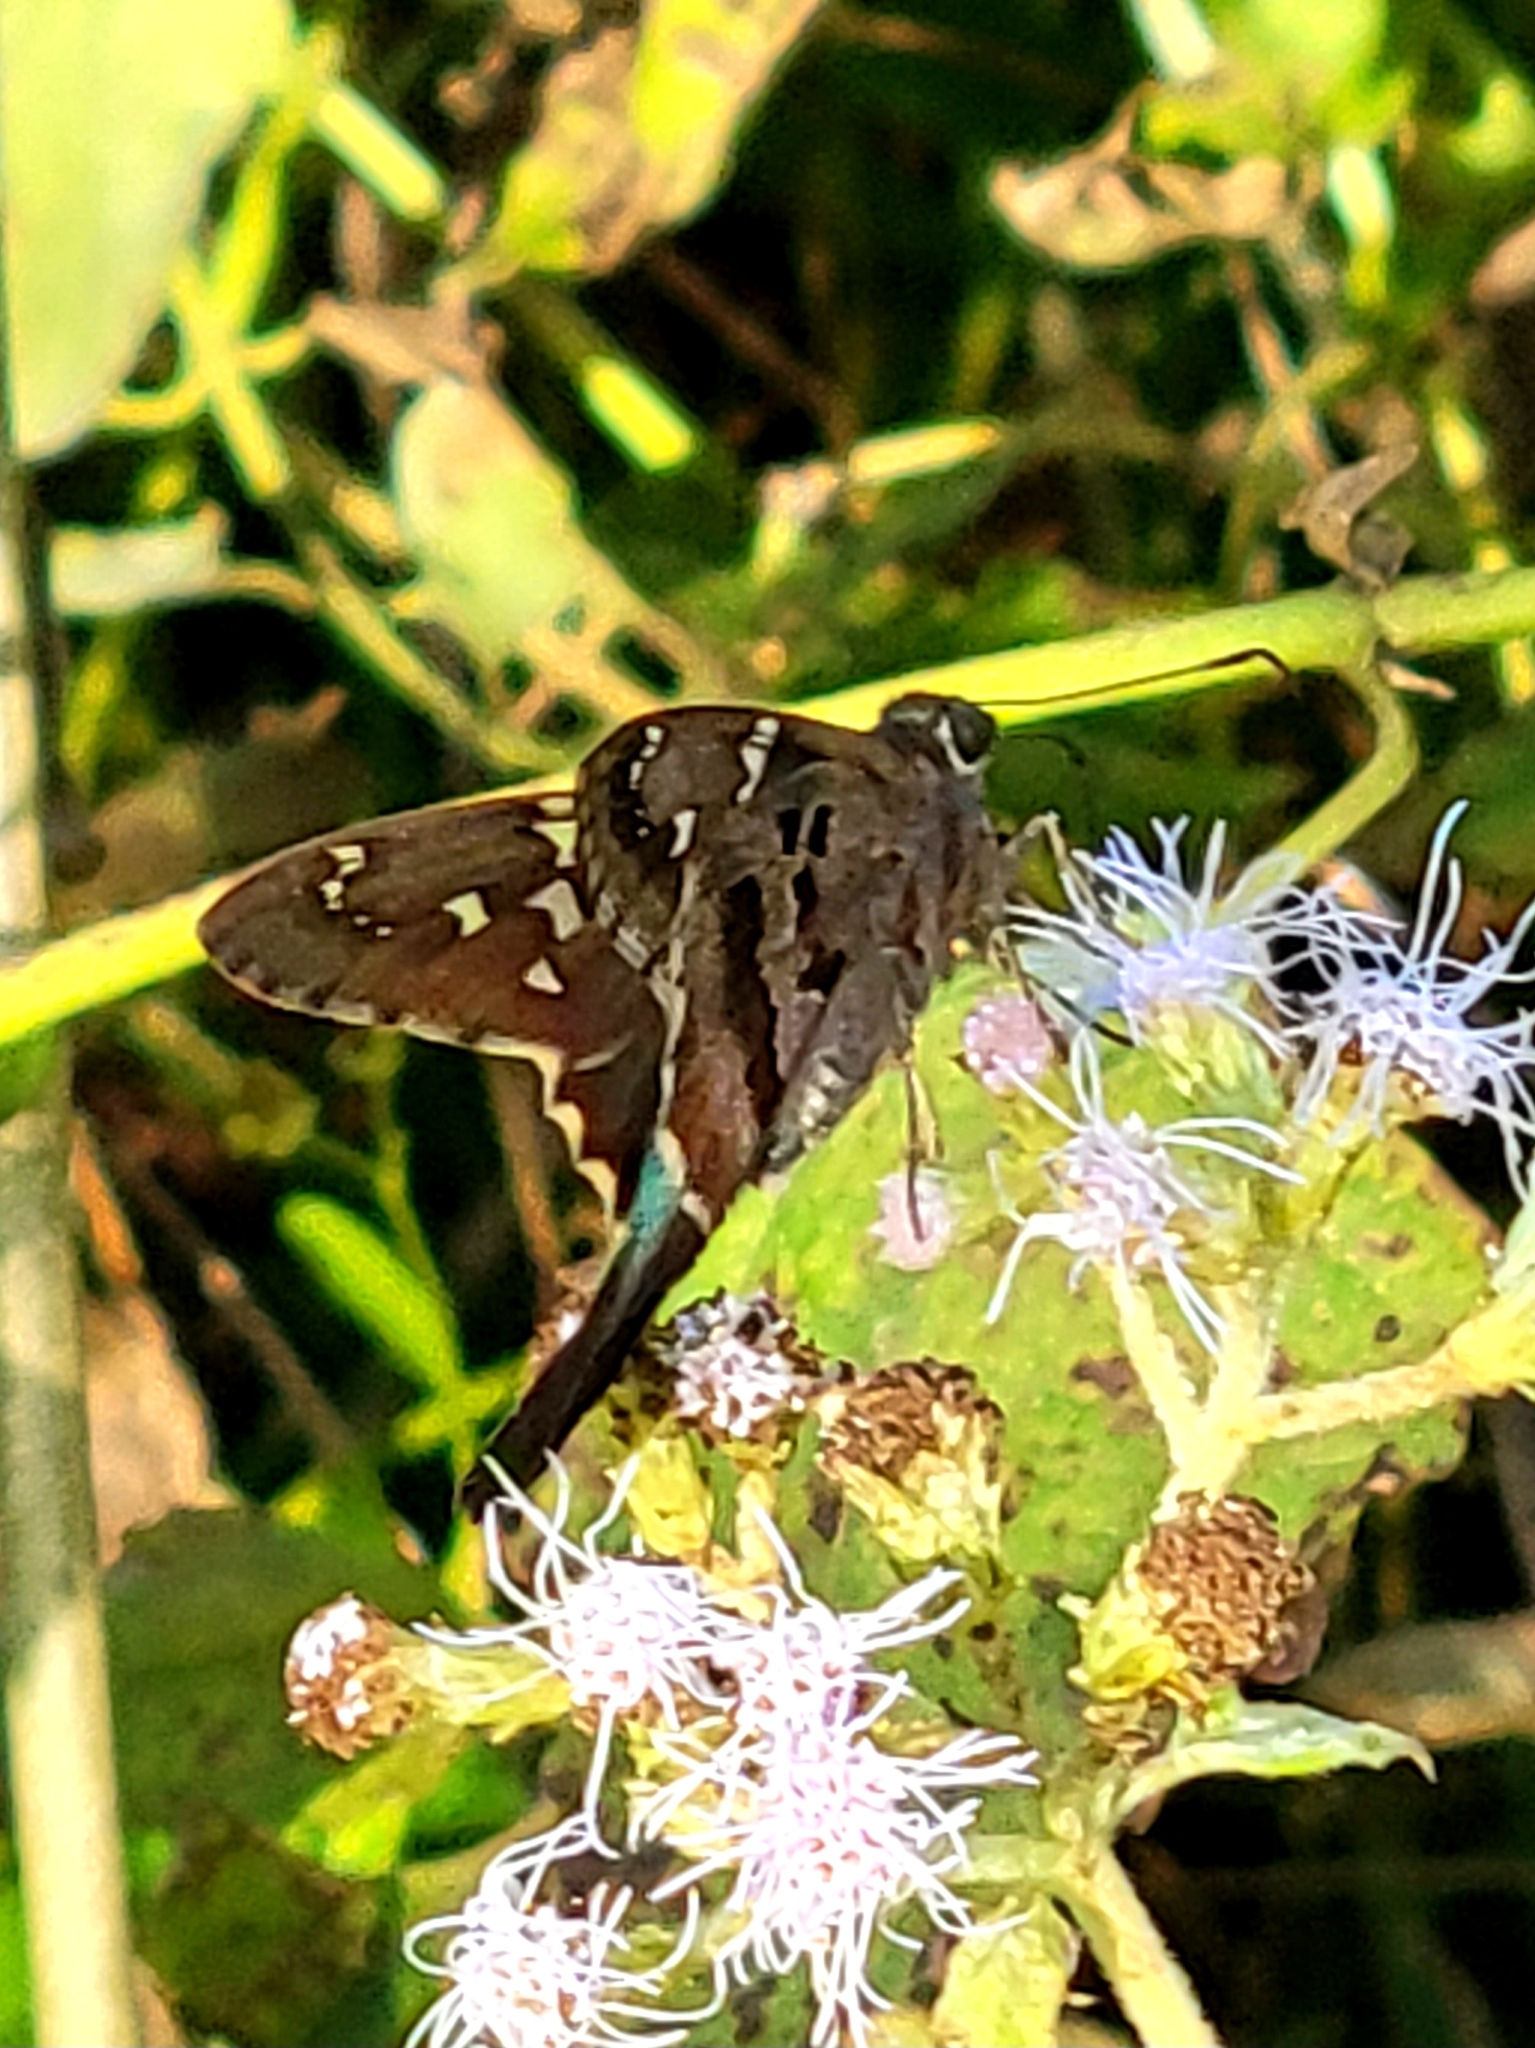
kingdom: Animalia
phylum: Arthropoda
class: Insecta
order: Lepidoptera
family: Hesperiidae
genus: Urbanus
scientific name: Urbanus proteus
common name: Long-tailed skipper
